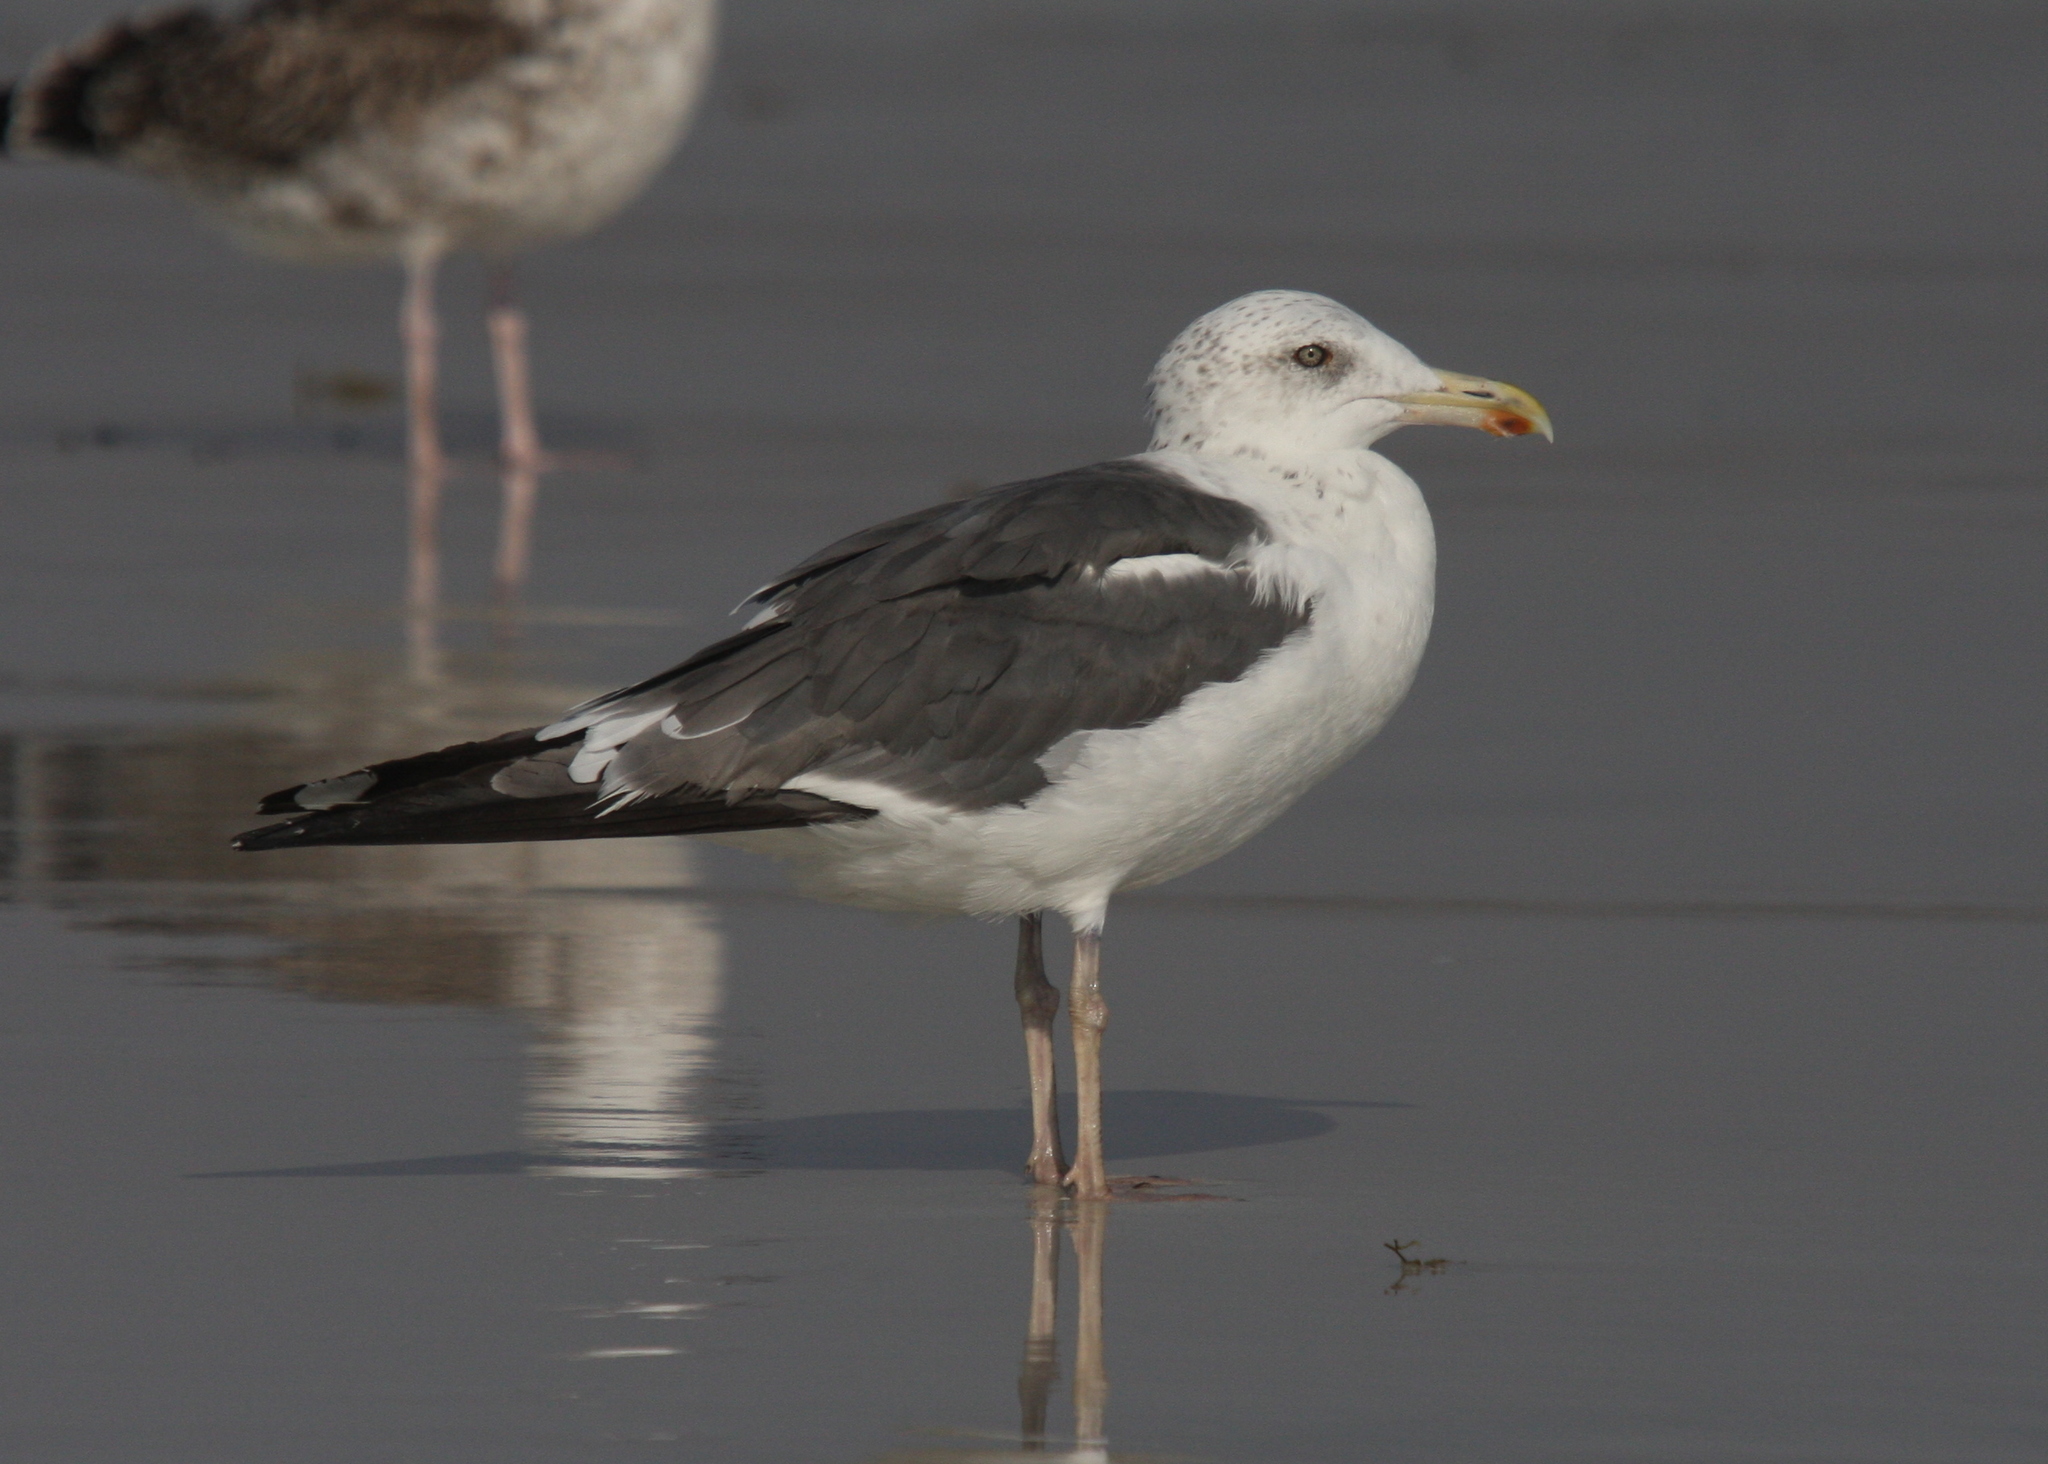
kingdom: Animalia
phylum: Chordata
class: Aves
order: Charadriiformes
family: Laridae
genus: Larus
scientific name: Larus fuscus
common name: Lesser black-backed gull
